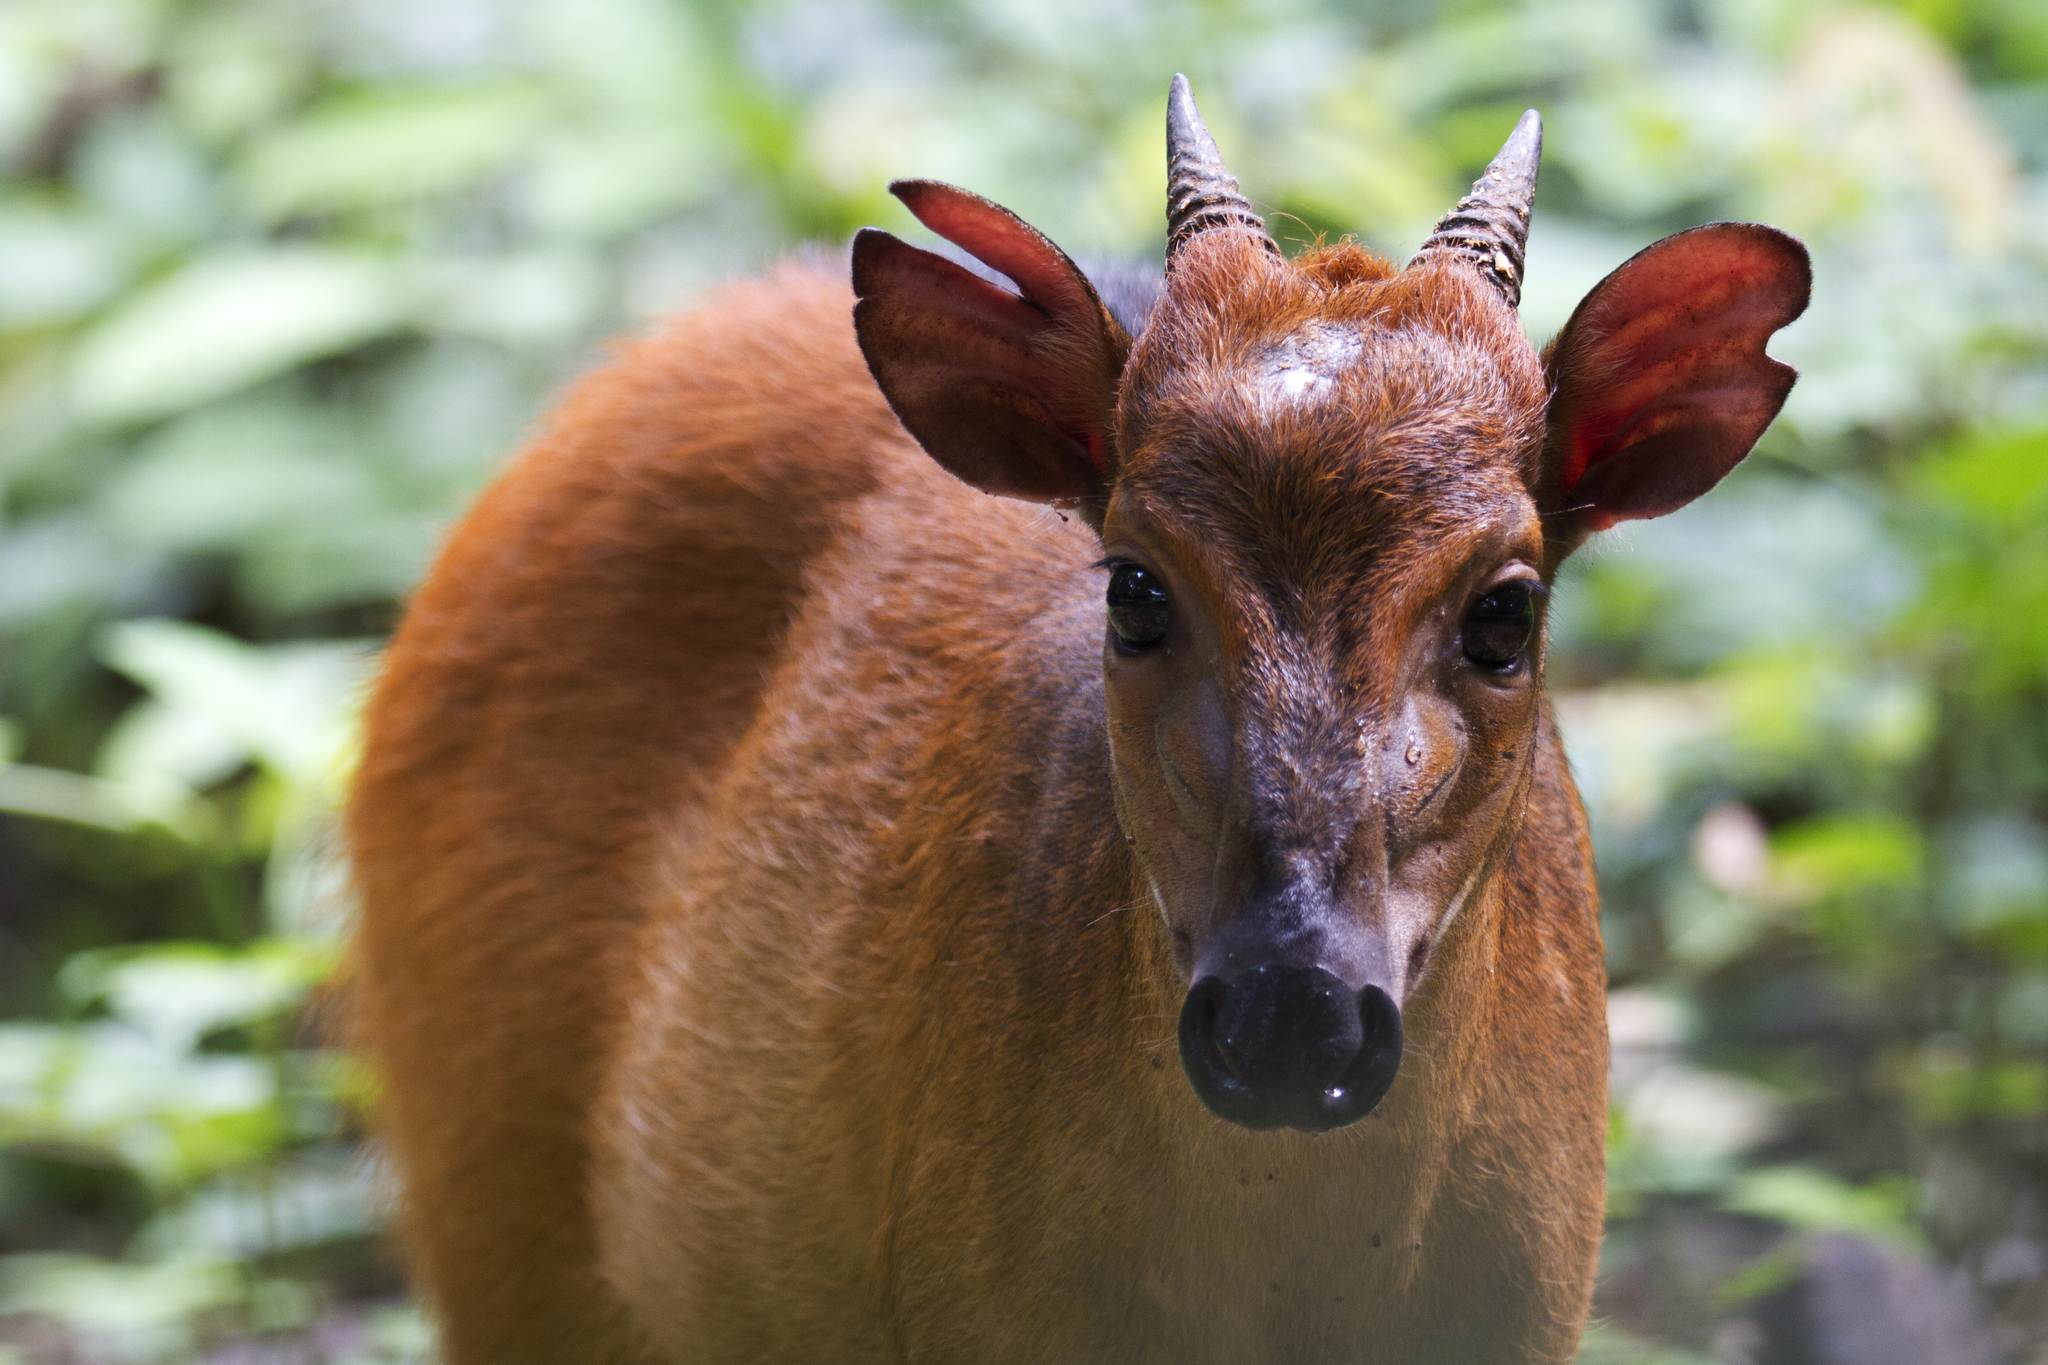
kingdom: Animalia
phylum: Chordata
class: Mammalia
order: Artiodactyla
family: Bovidae
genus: Cephalophus
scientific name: Cephalophus ogilbyi
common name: Ogilby's duiker
